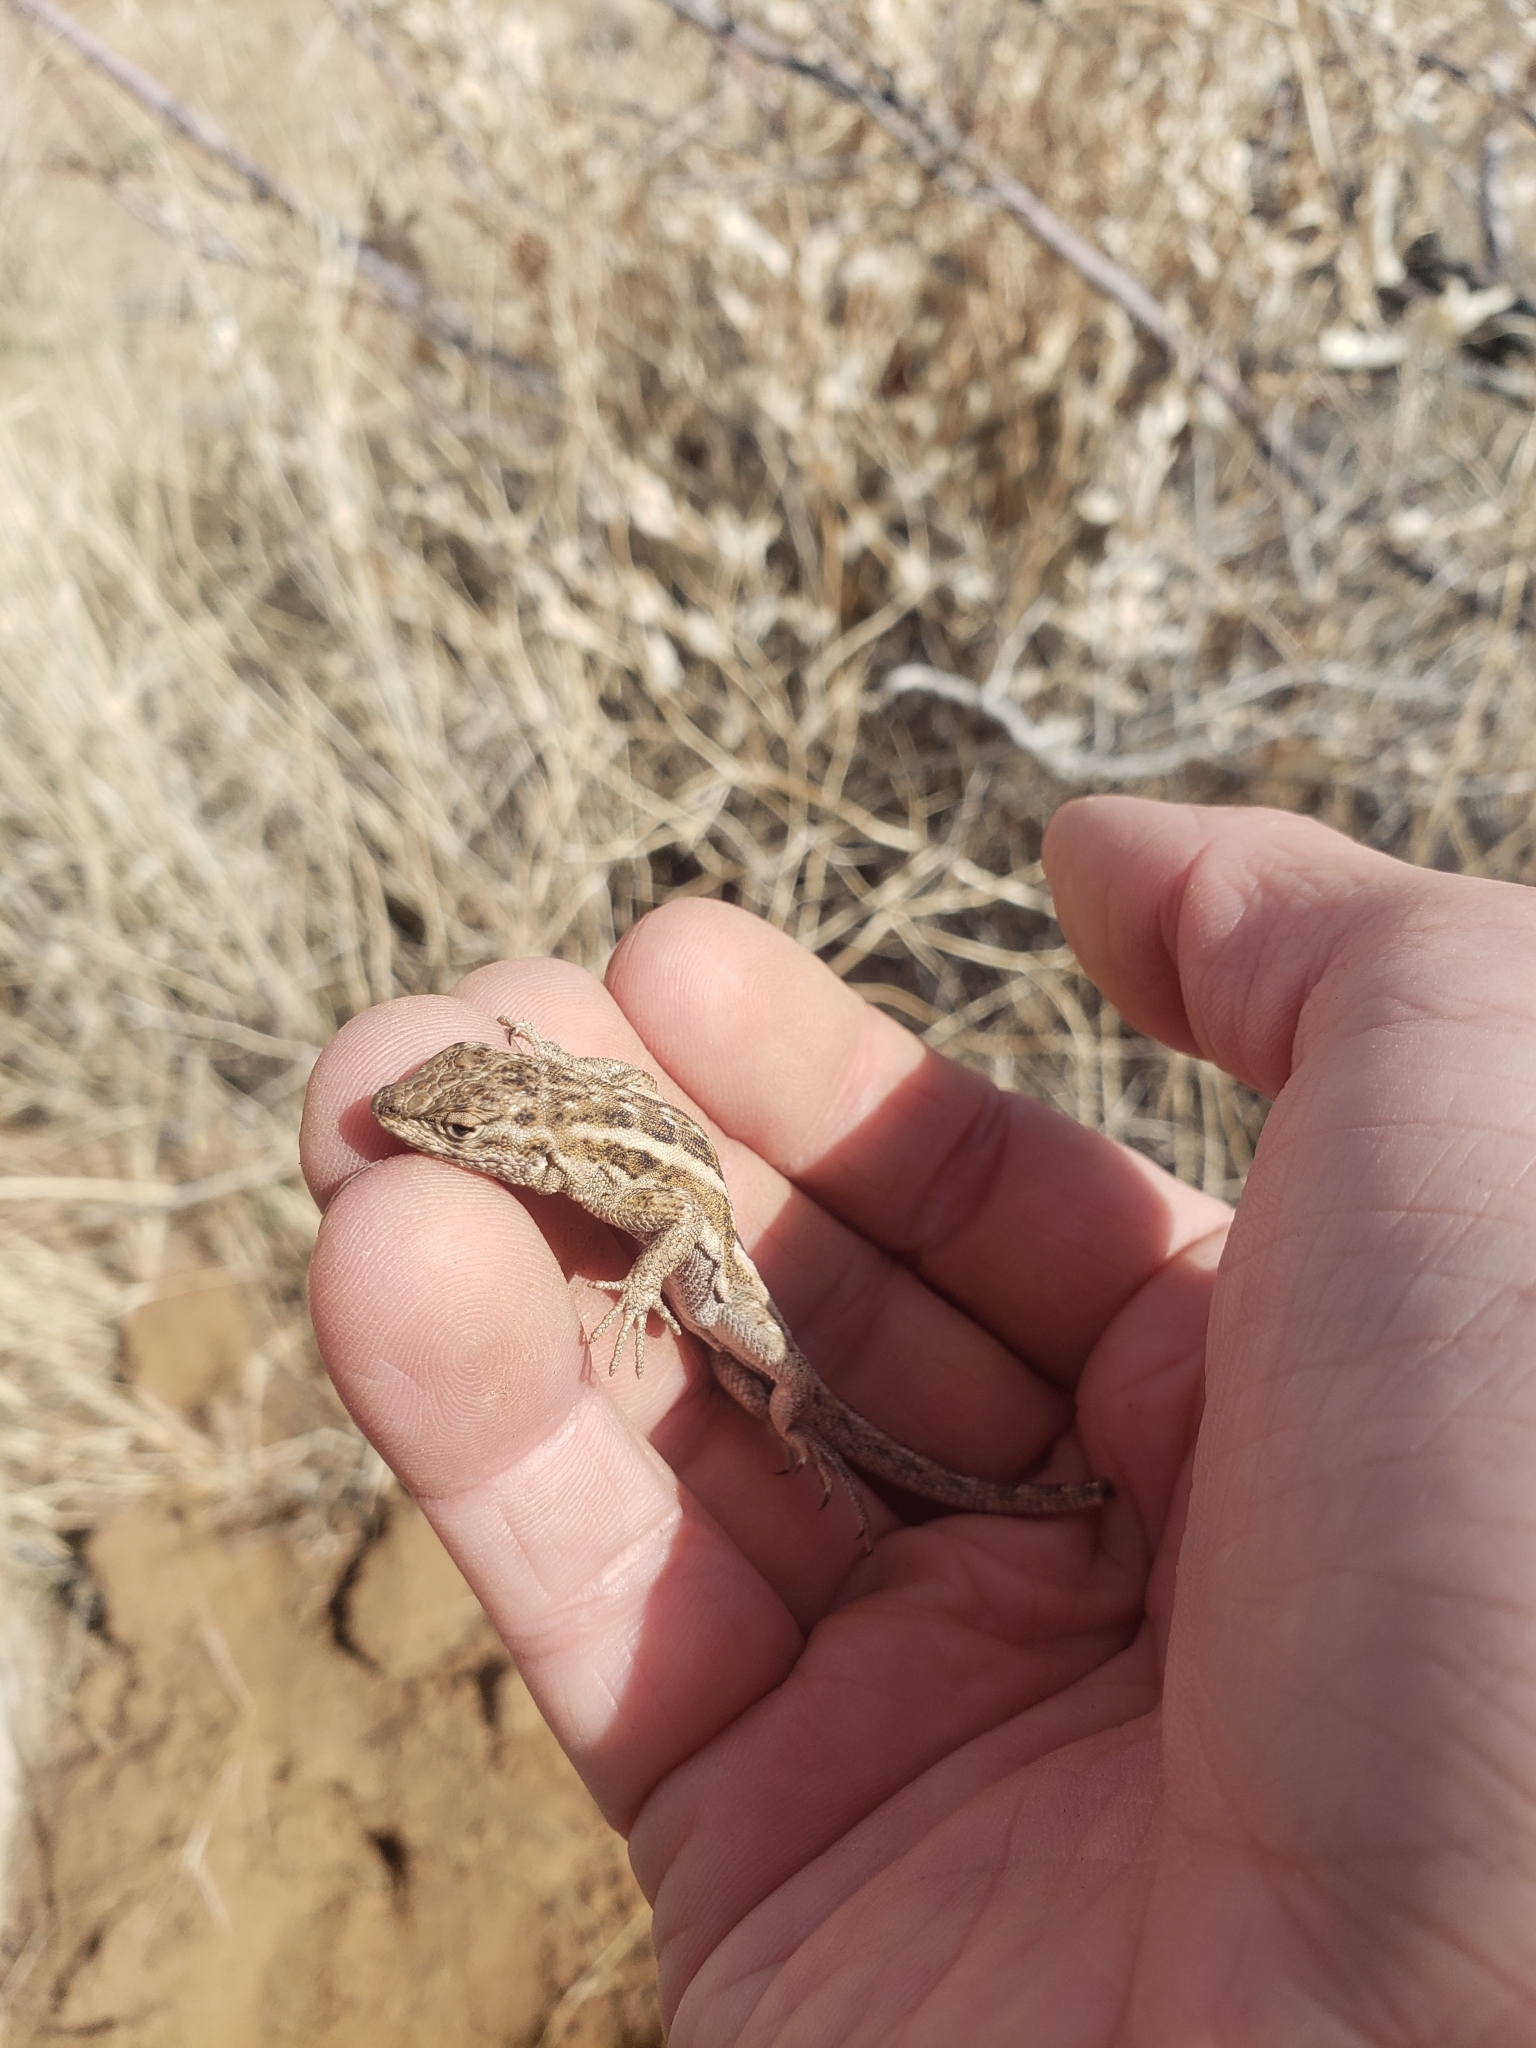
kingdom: Animalia
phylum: Chordata
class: Squamata
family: Phrynosomatidae
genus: Uta
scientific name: Uta stansburiana
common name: Side-blotched lizard
